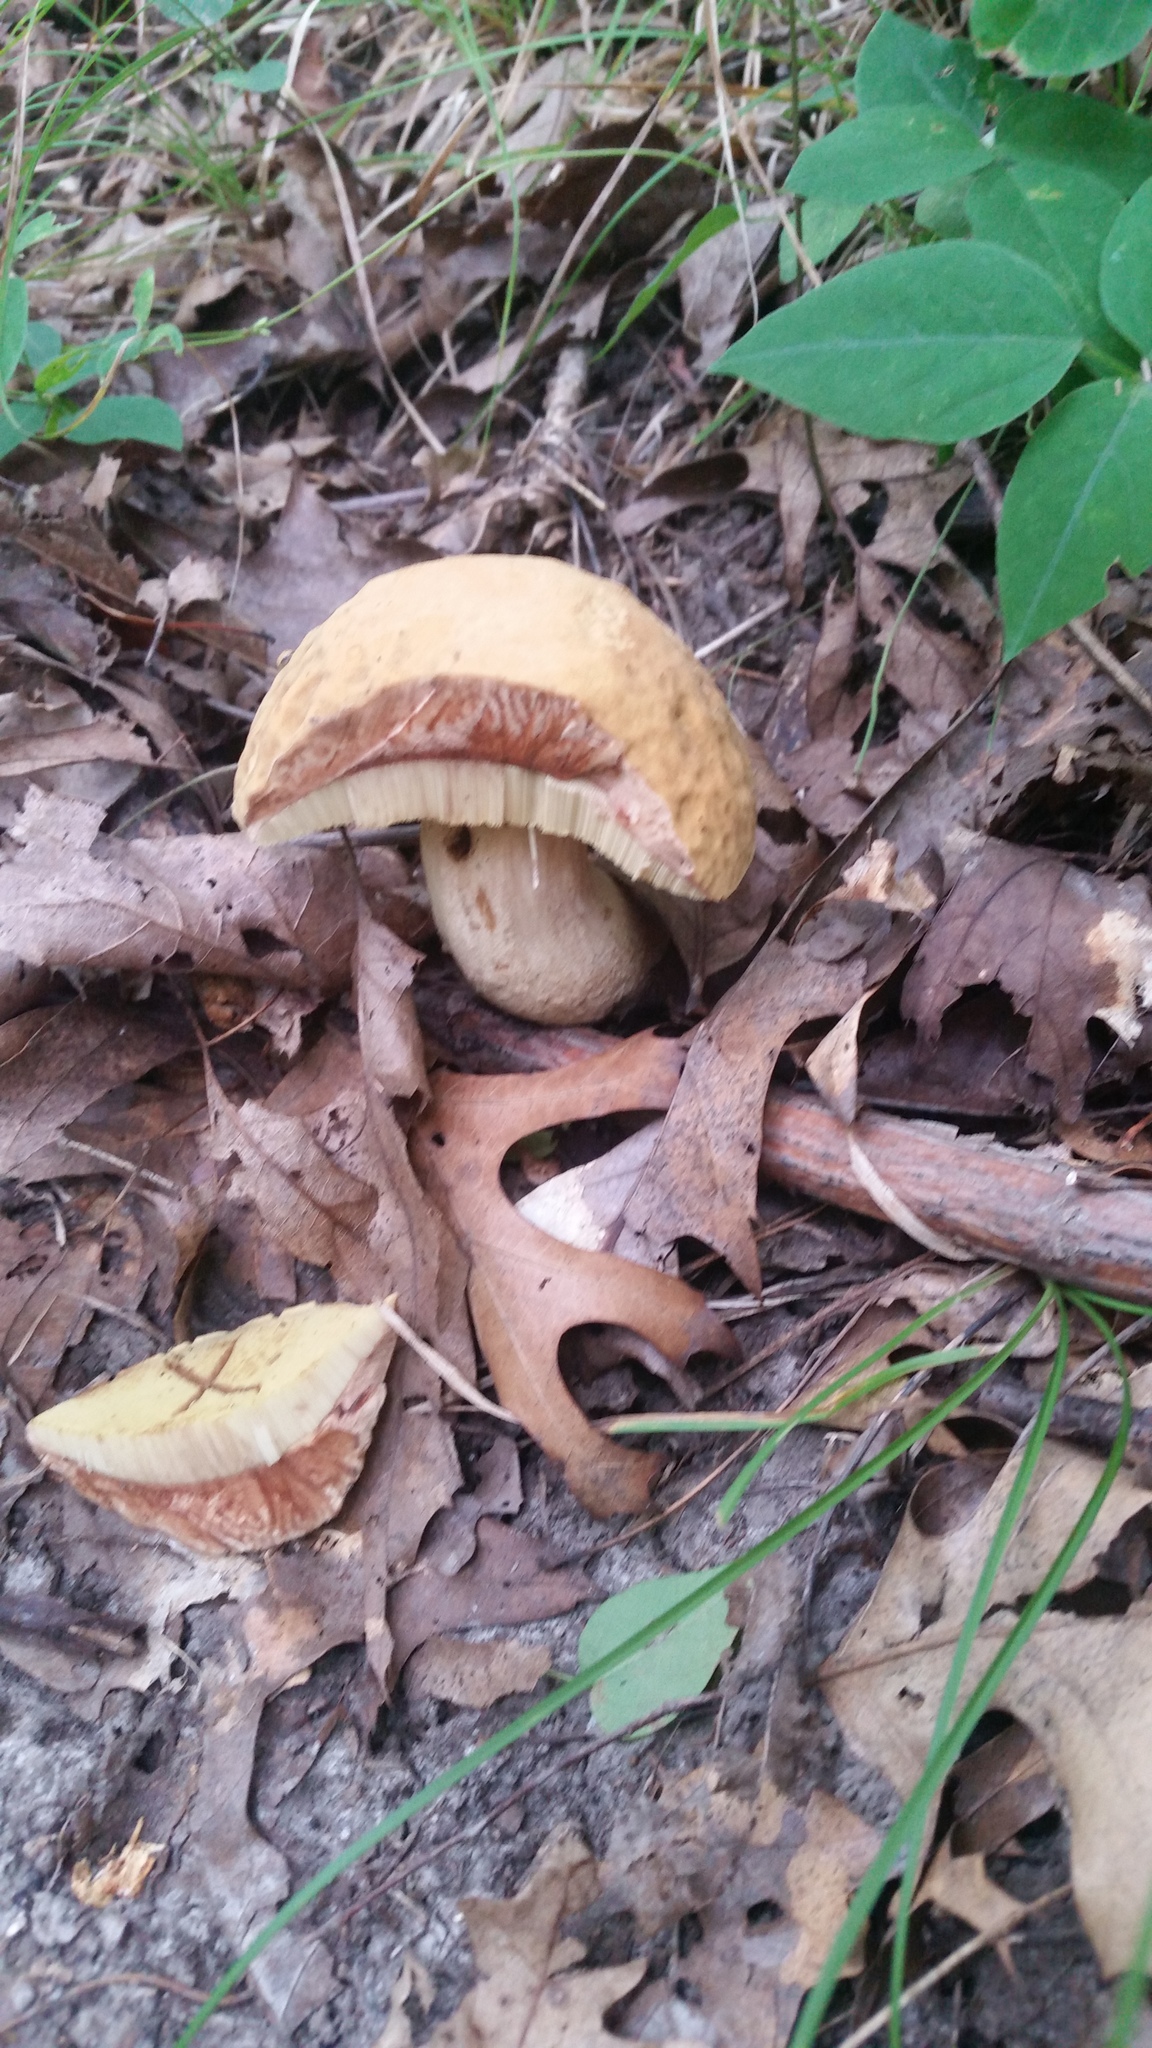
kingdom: Fungi
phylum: Basidiomycota
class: Agaricomycetes
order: Boletales
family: Boletaceae
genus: Leccinellum
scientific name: Leccinellum rugosiceps
